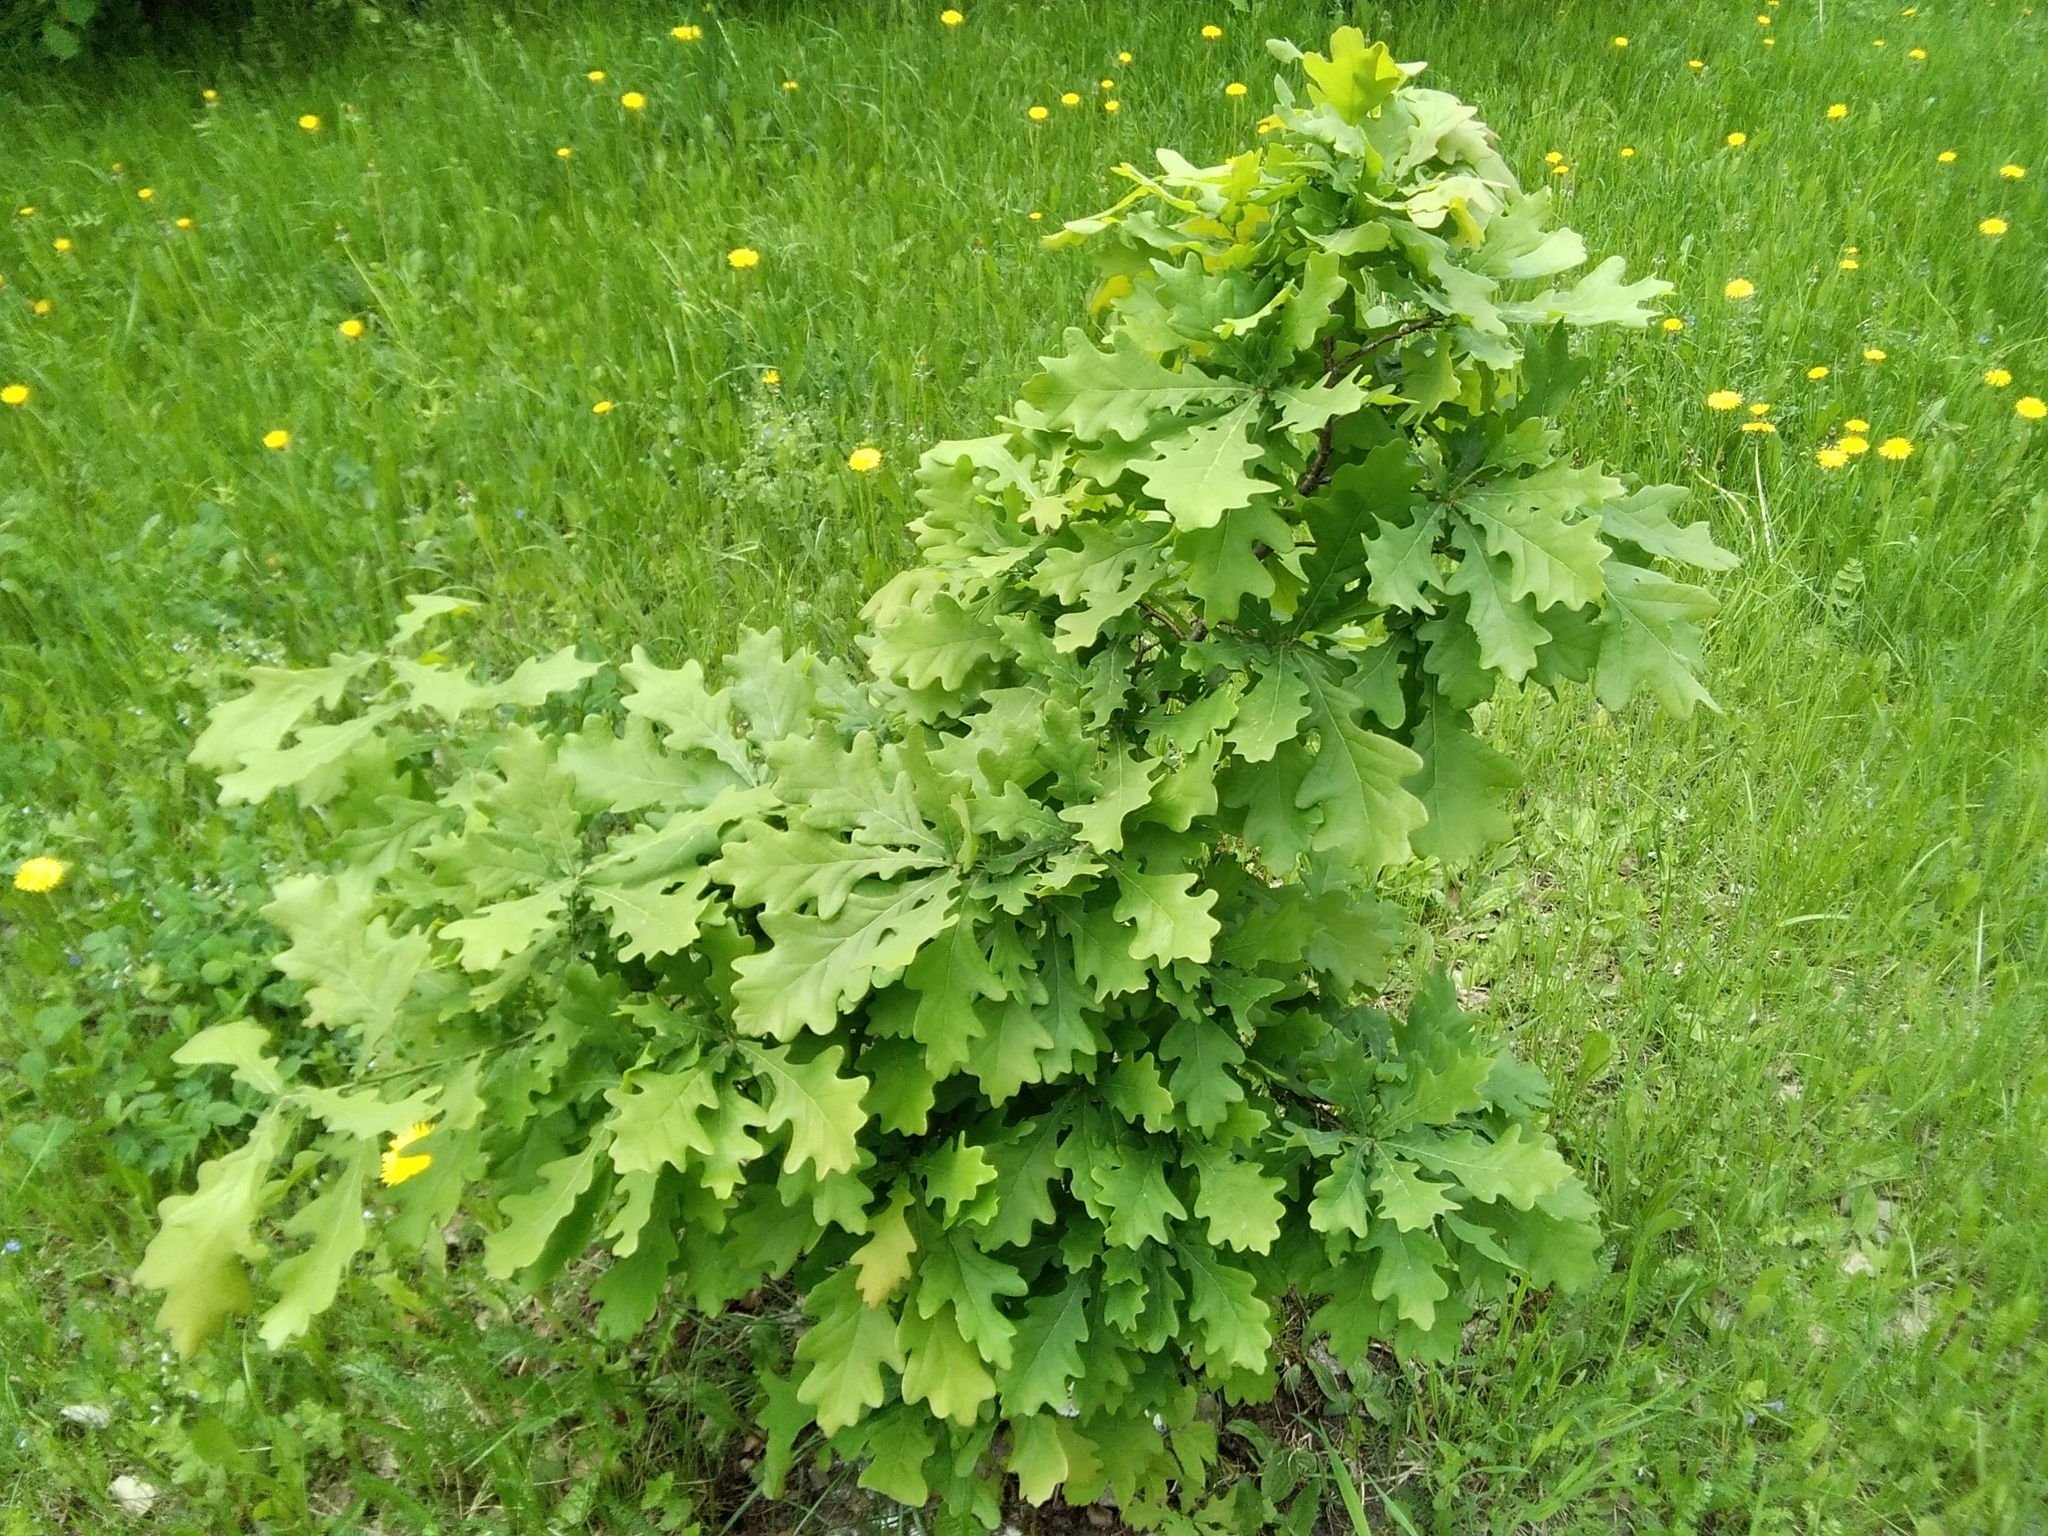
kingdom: Plantae
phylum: Tracheophyta
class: Magnoliopsida
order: Fagales
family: Fagaceae
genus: Quercus
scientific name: Quercus robur
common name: Pedunculate oak
